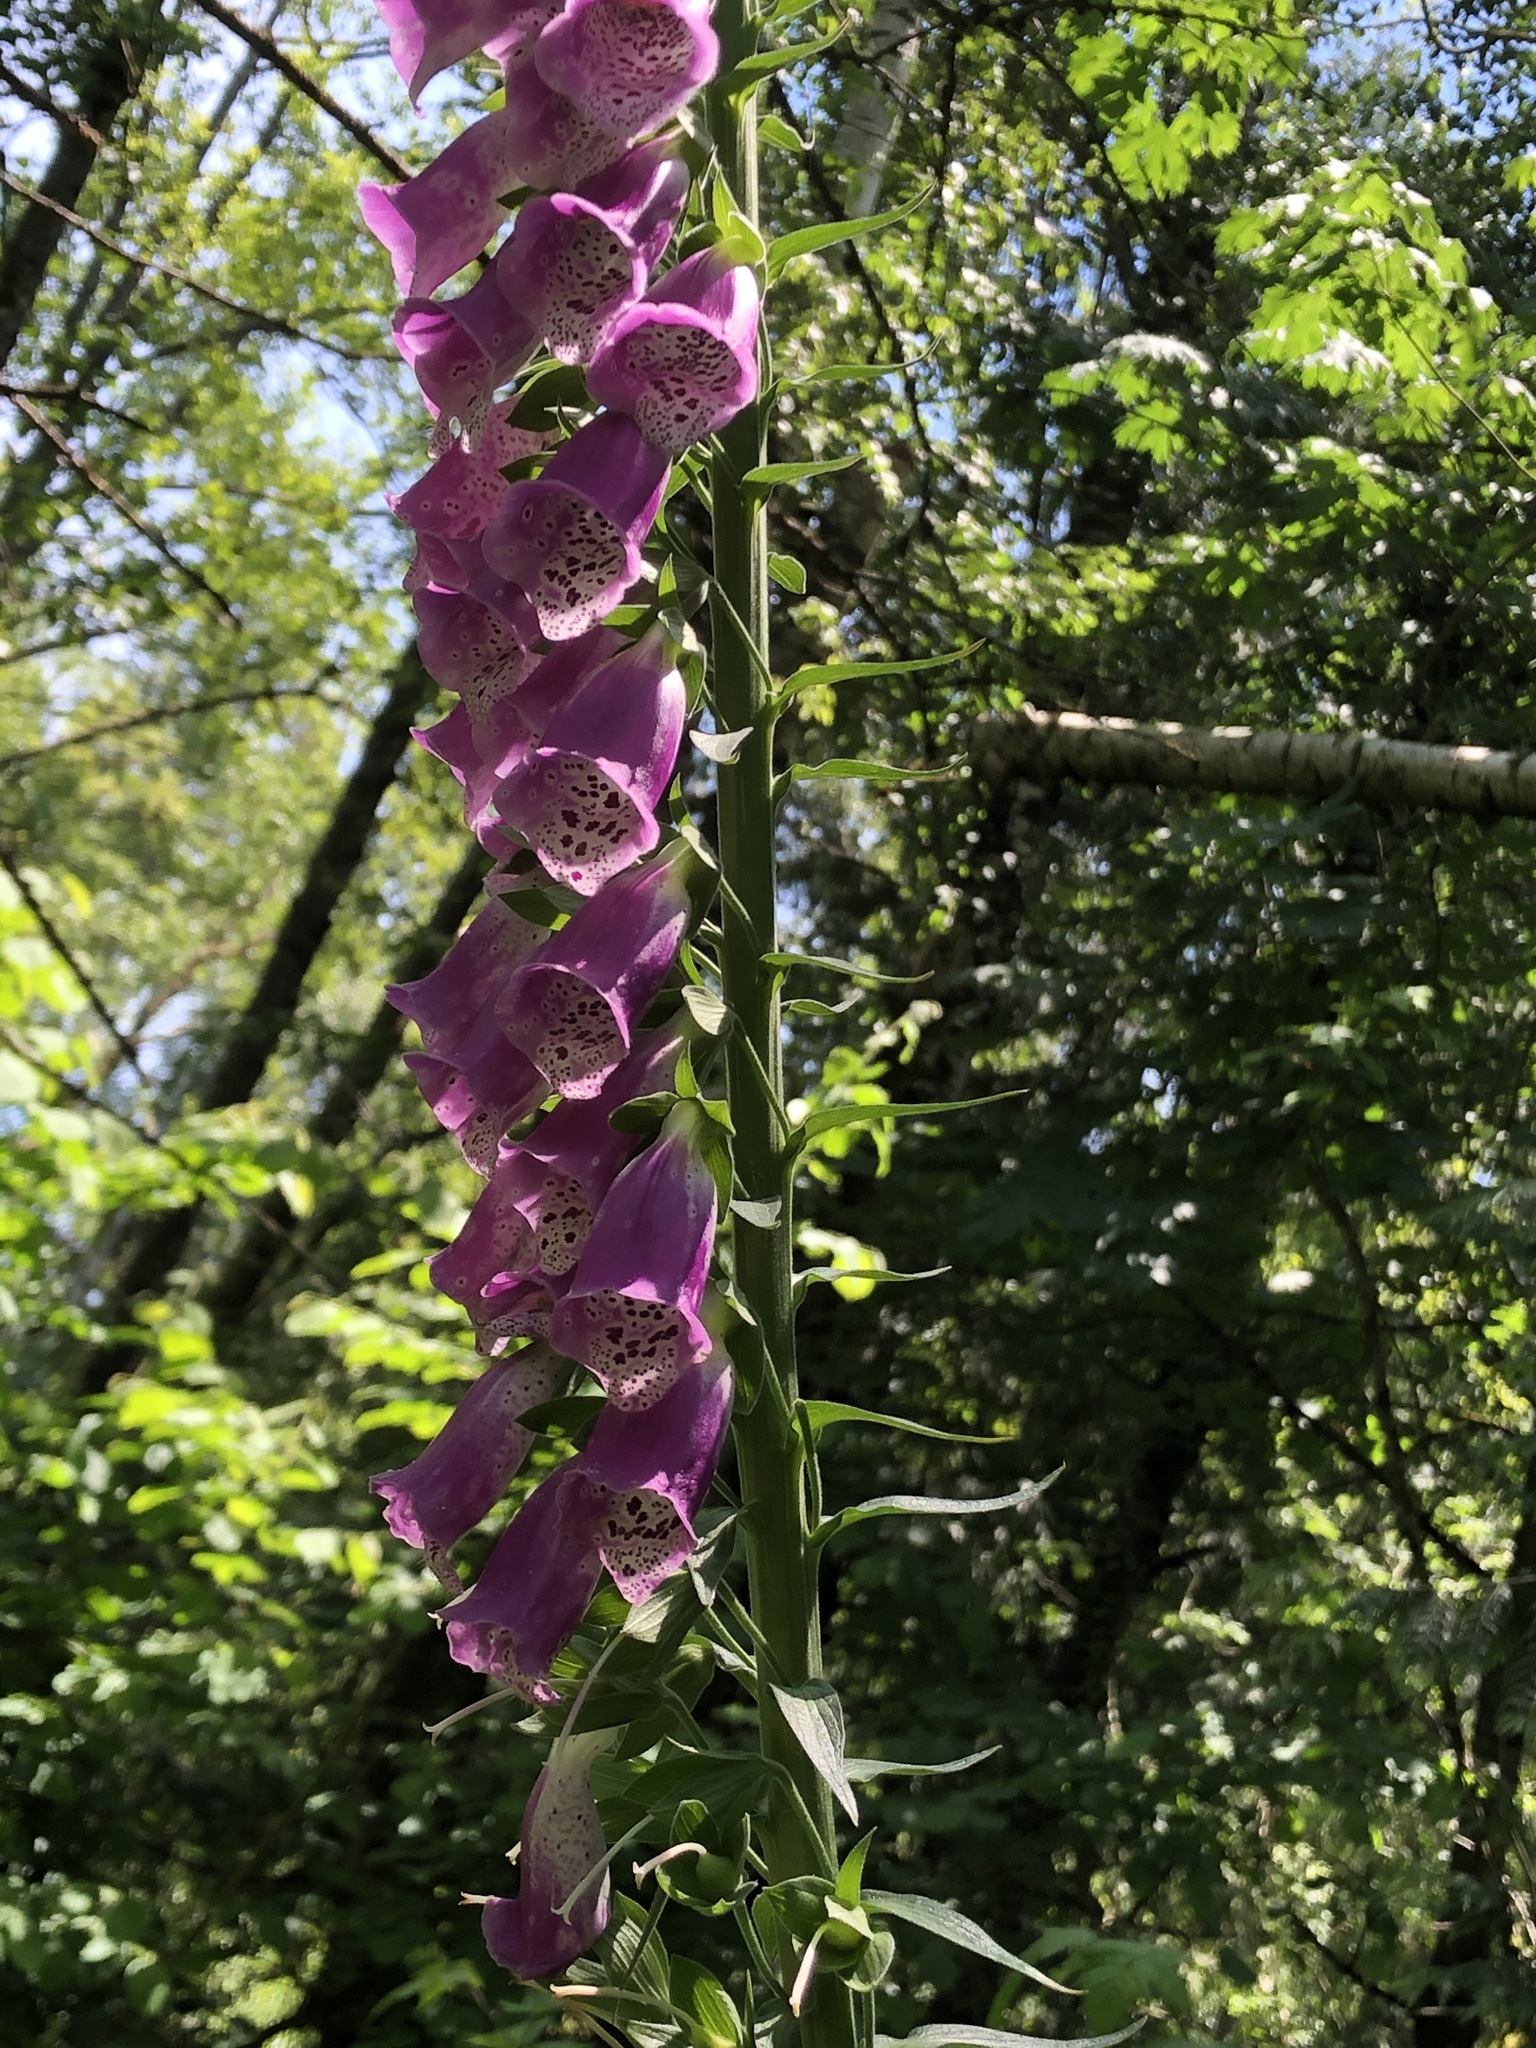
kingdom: Plantae
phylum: Tracheophyta
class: Magnoliopsida
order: Lamiales
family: Plantaginaceae
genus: Digitalis
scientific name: Digitalis purpurea
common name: Foxglove
